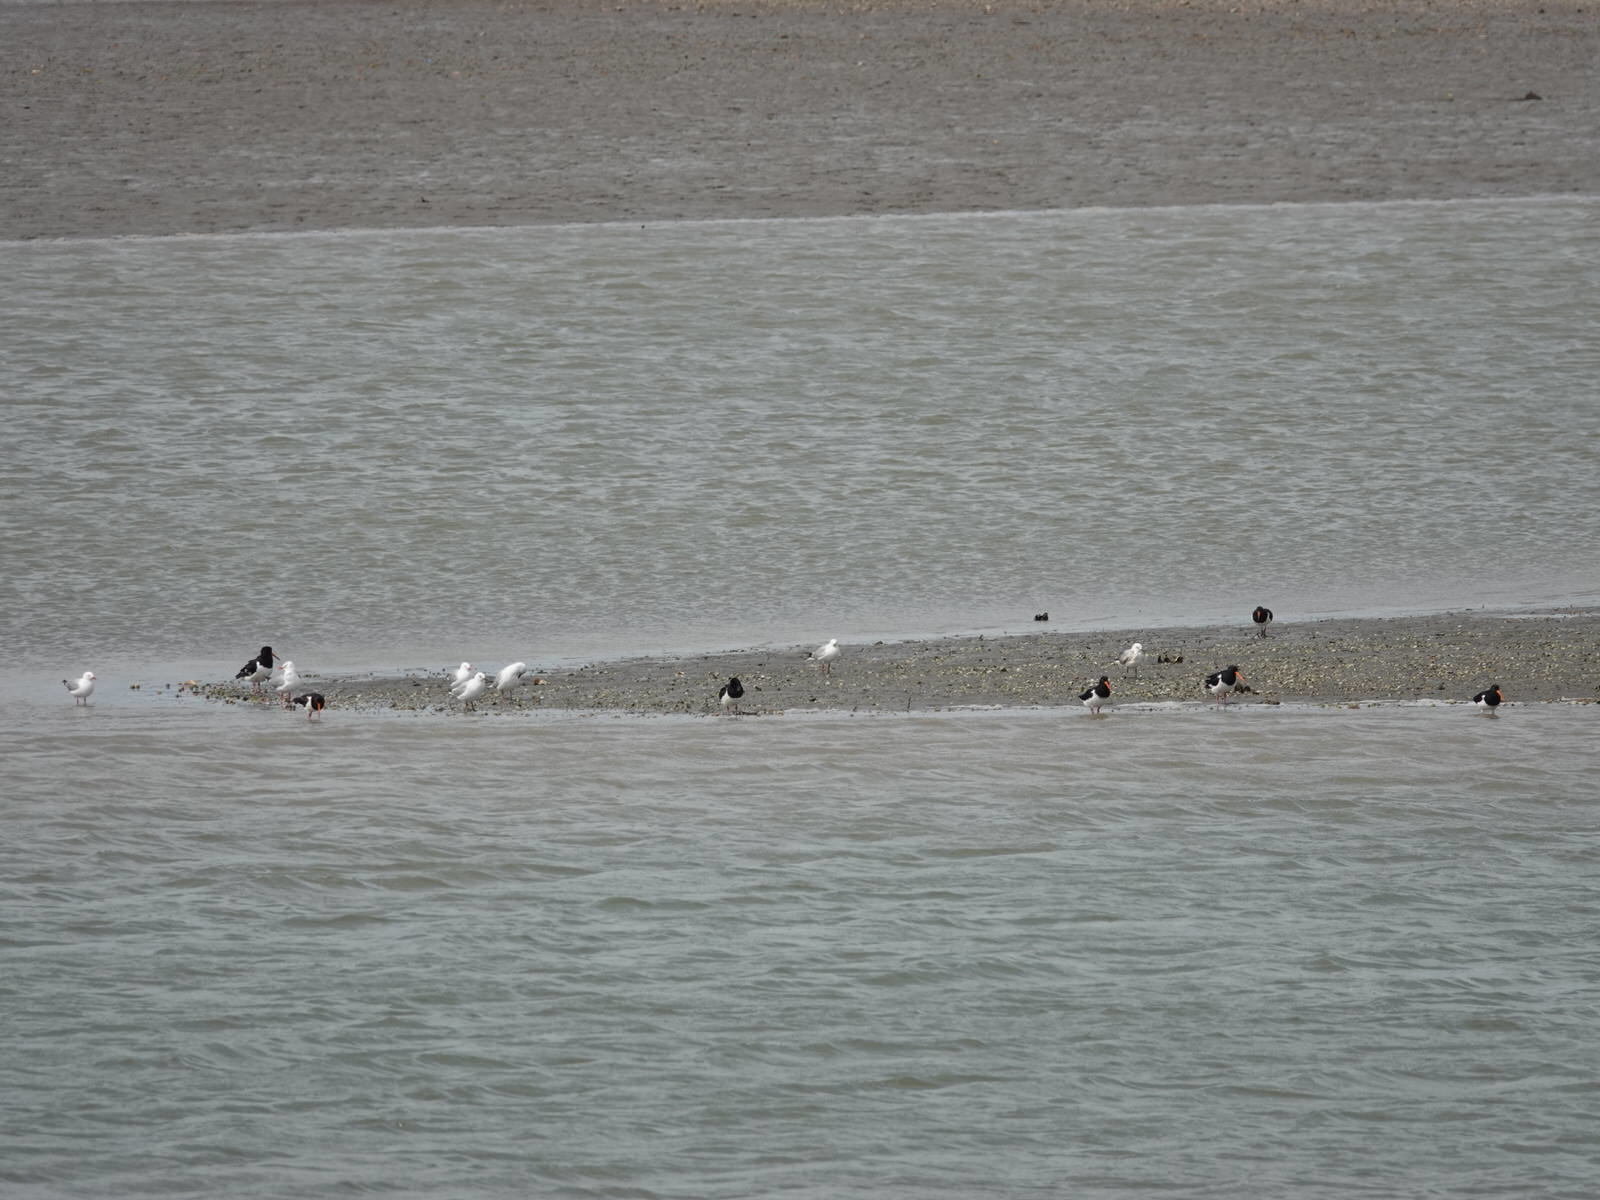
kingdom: Animalia
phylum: Chordata
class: Aves
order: Charadriiformes
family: Haematopodidae
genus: Haematopus
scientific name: Haematopus finschi
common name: South island oystercatcher
